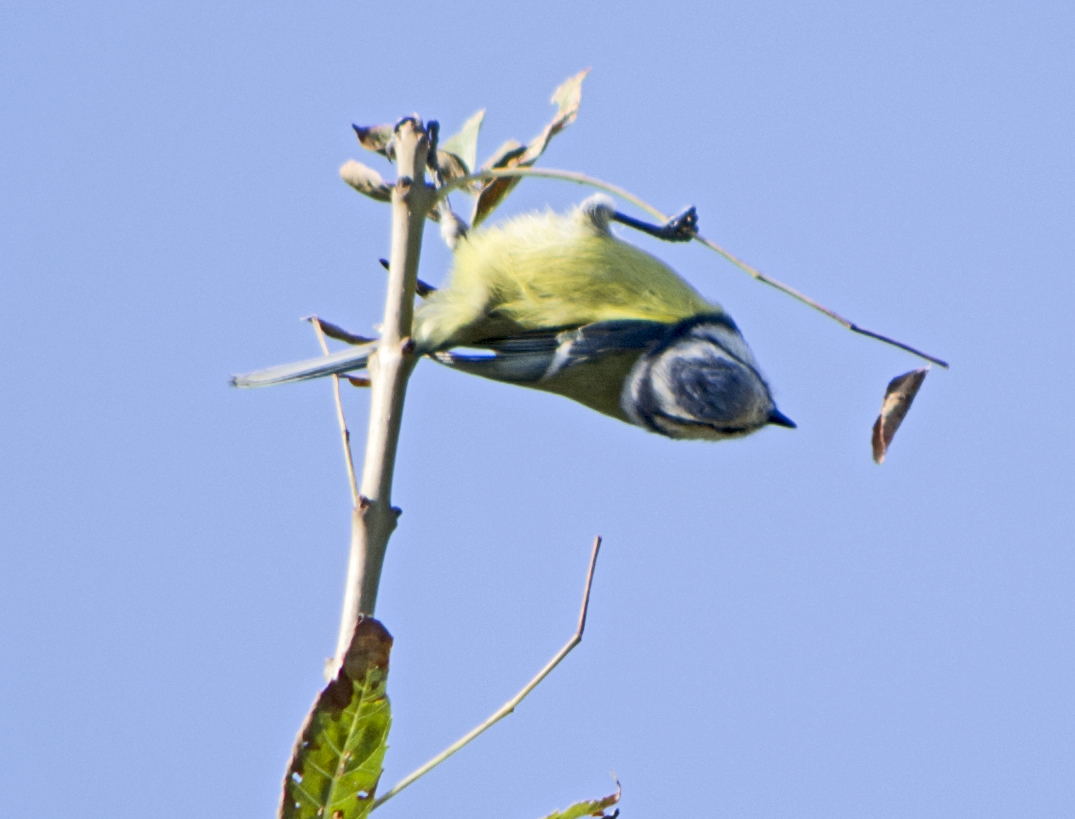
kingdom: Animalia
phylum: Chordata
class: Aves
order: Passeriformes
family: Paridae
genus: Cyanistes
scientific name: Cyanistes caeruleus
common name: Eurasian blue tit
